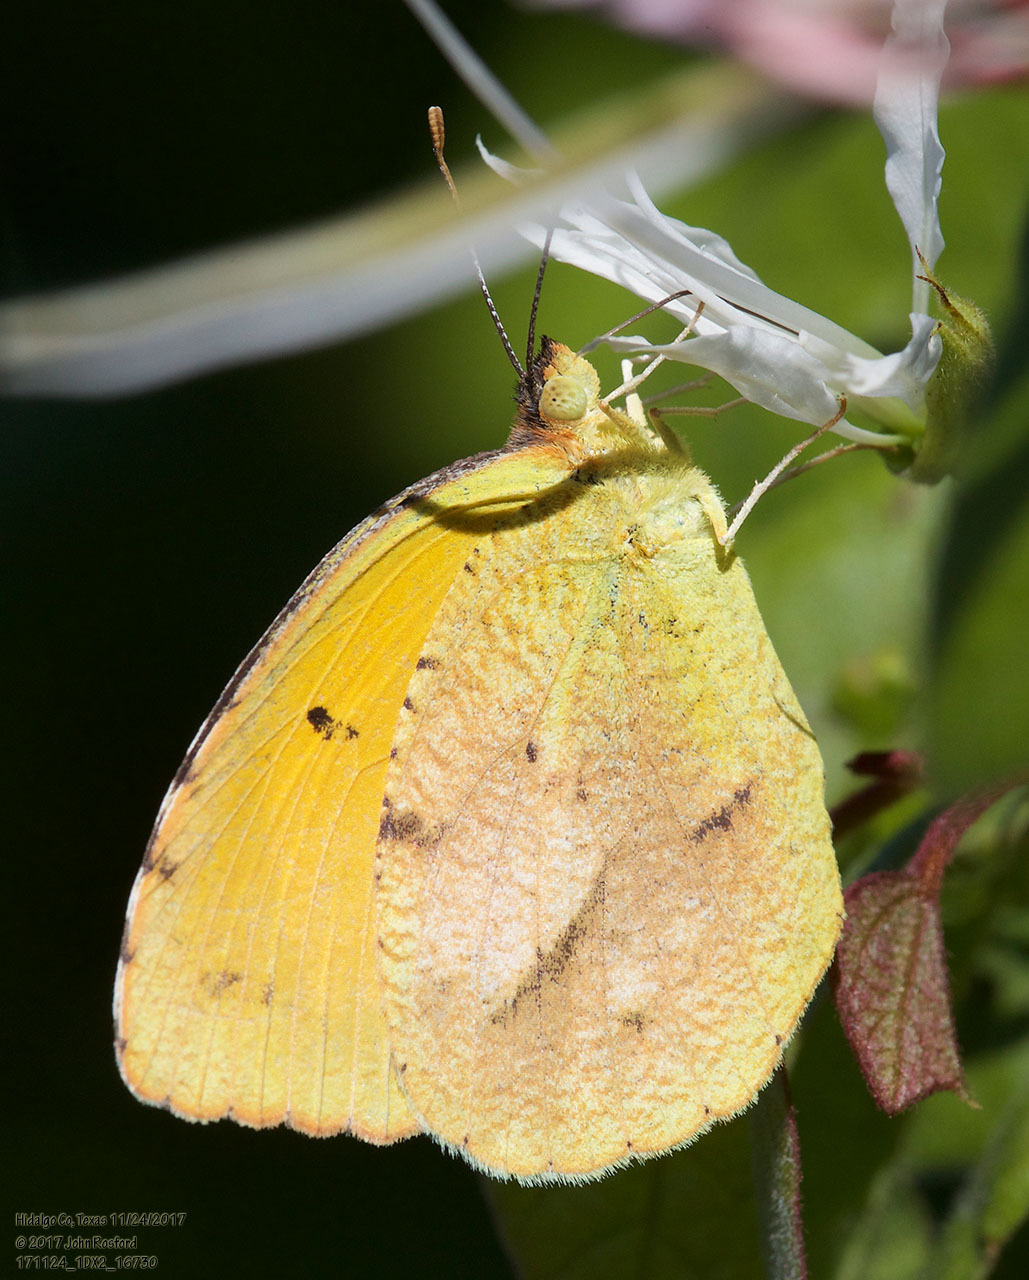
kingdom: Animalia
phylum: Arthropoda
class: Insecta
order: Lepidoptera
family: Pieridae
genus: Abaeis
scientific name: Abaeis nicippe
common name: Sleepy orange
